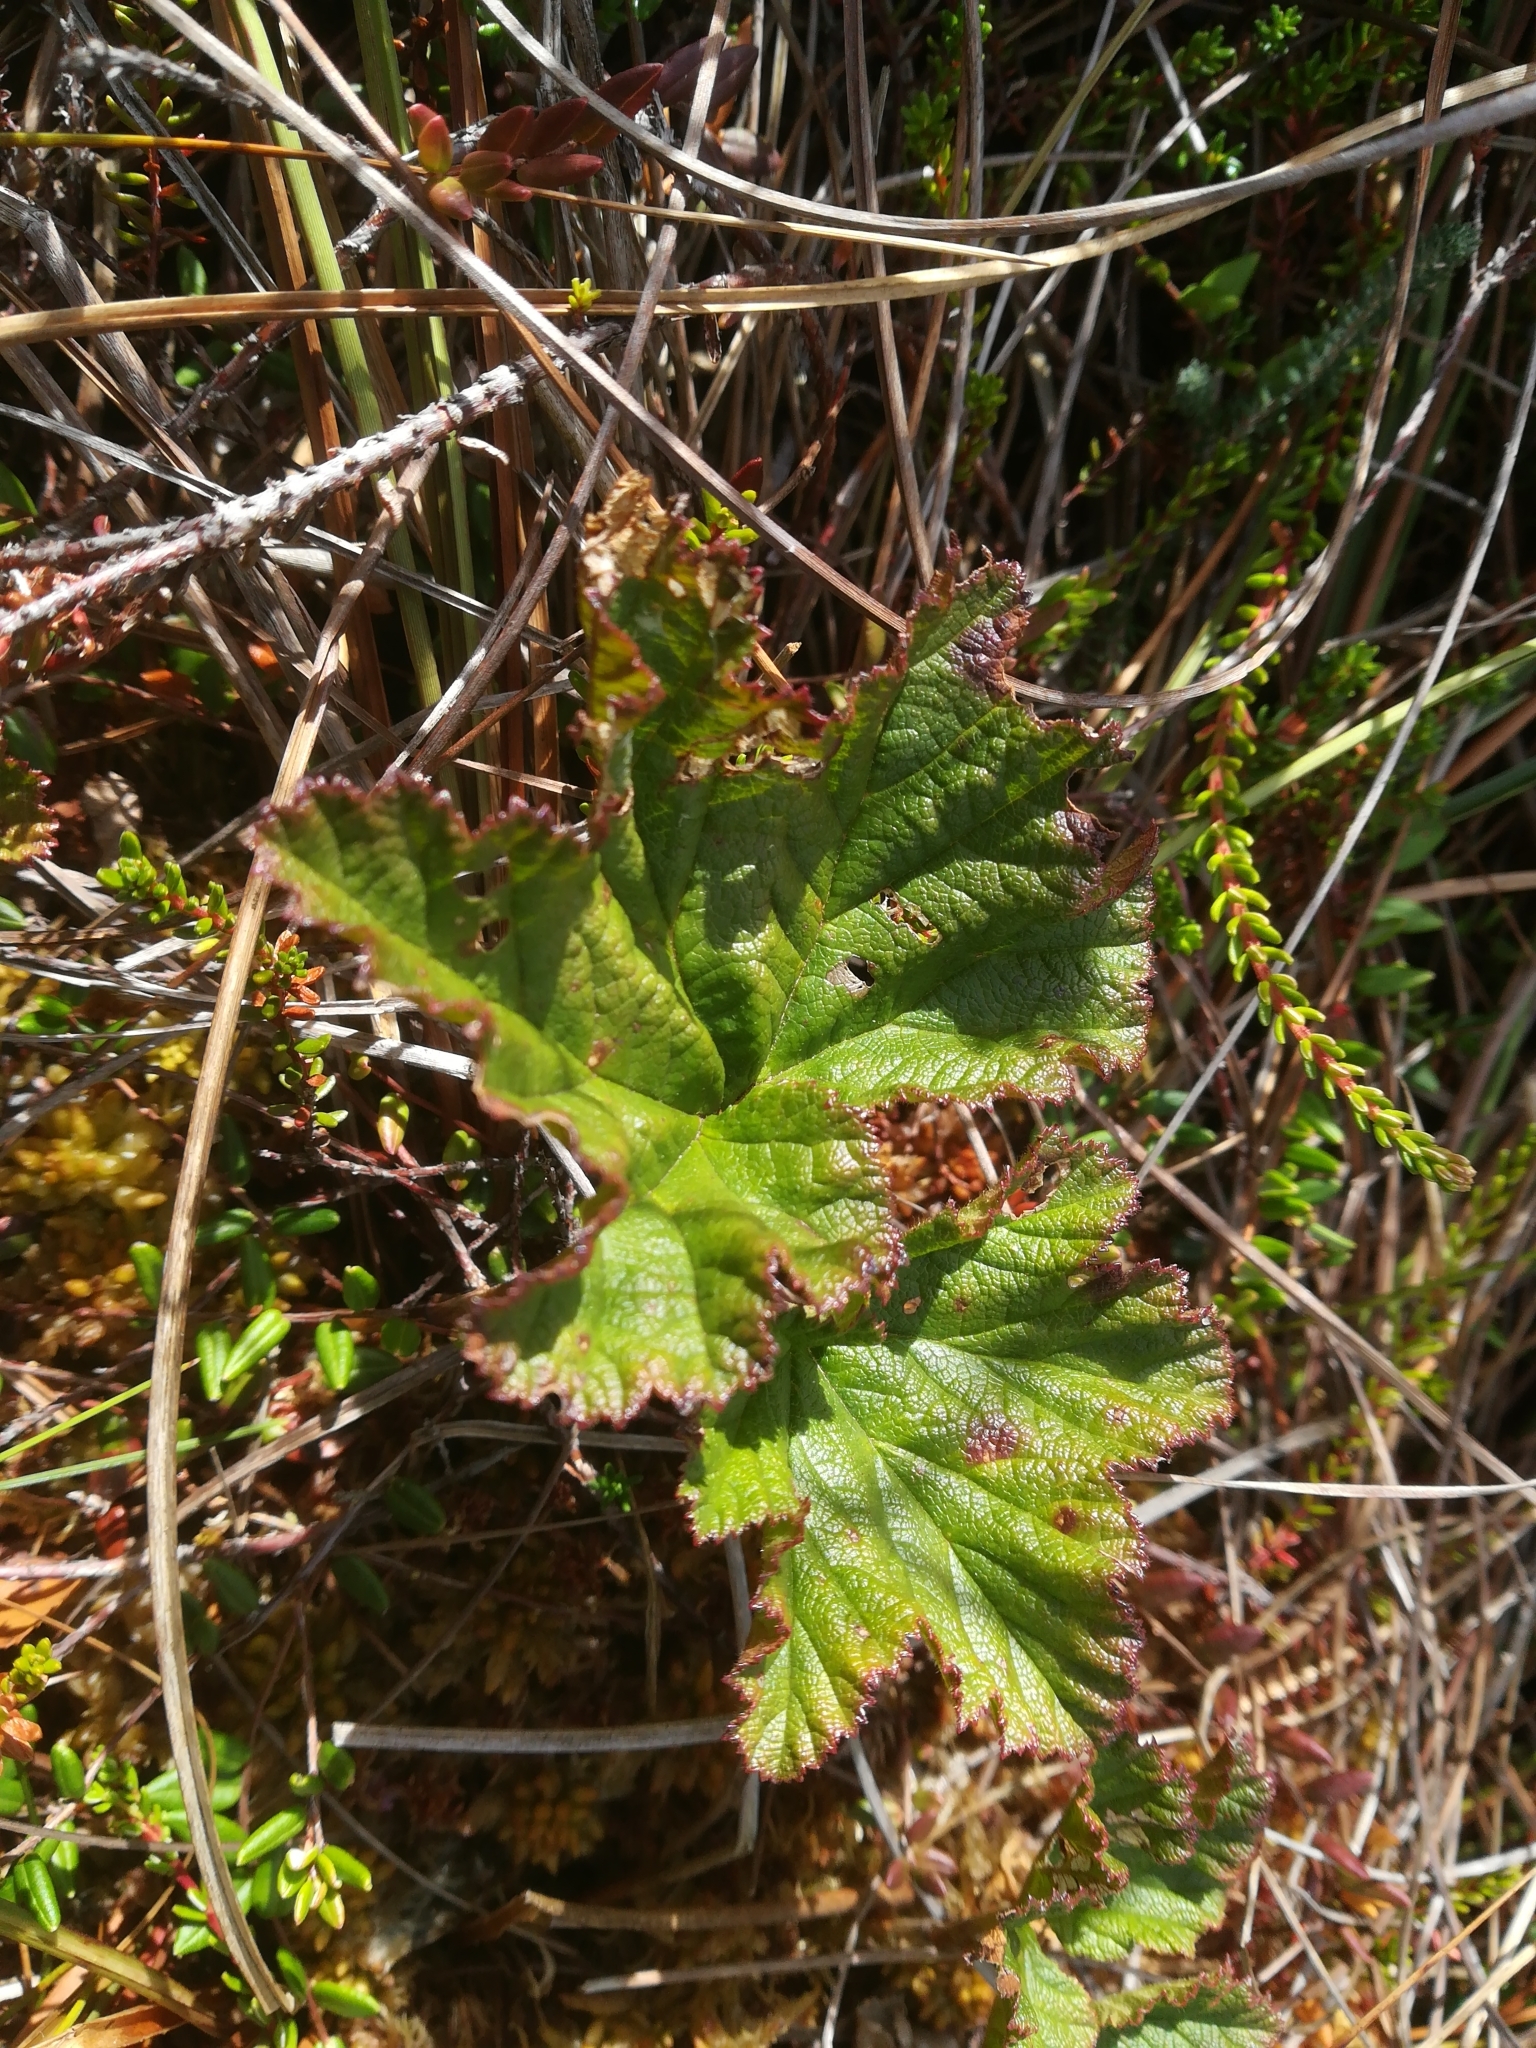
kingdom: Plantae
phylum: Tracheophyta
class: Magnoliopsida
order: Rosales
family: Rosaceae
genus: Rubus
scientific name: Rubus chamaemorus
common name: Cloudberry
